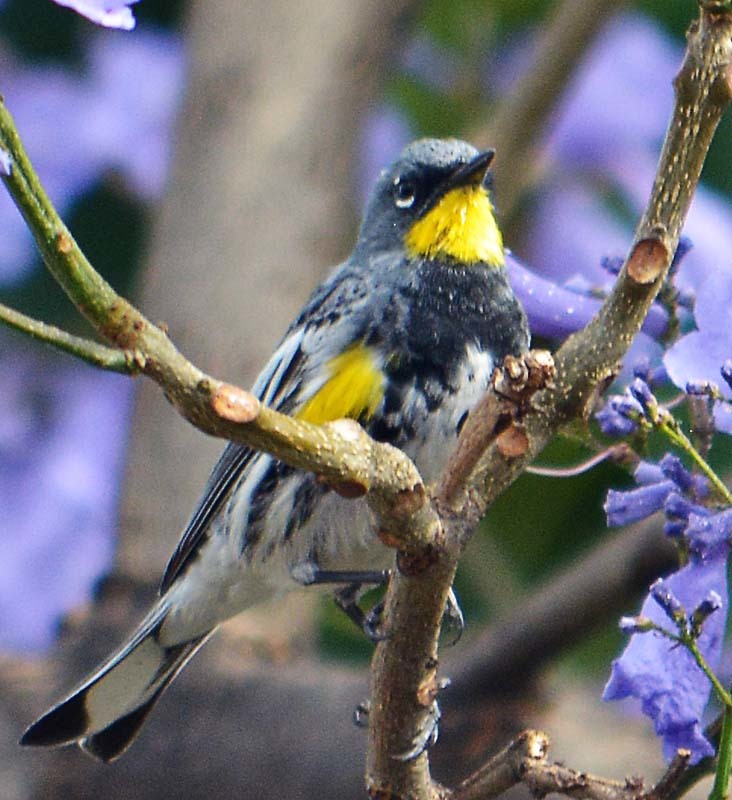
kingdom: Animalia
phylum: Chordata
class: Aves
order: Passeriformes
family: Parulidae
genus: Setophaga
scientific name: Setophaga auduboni
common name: Audubon's warbler
